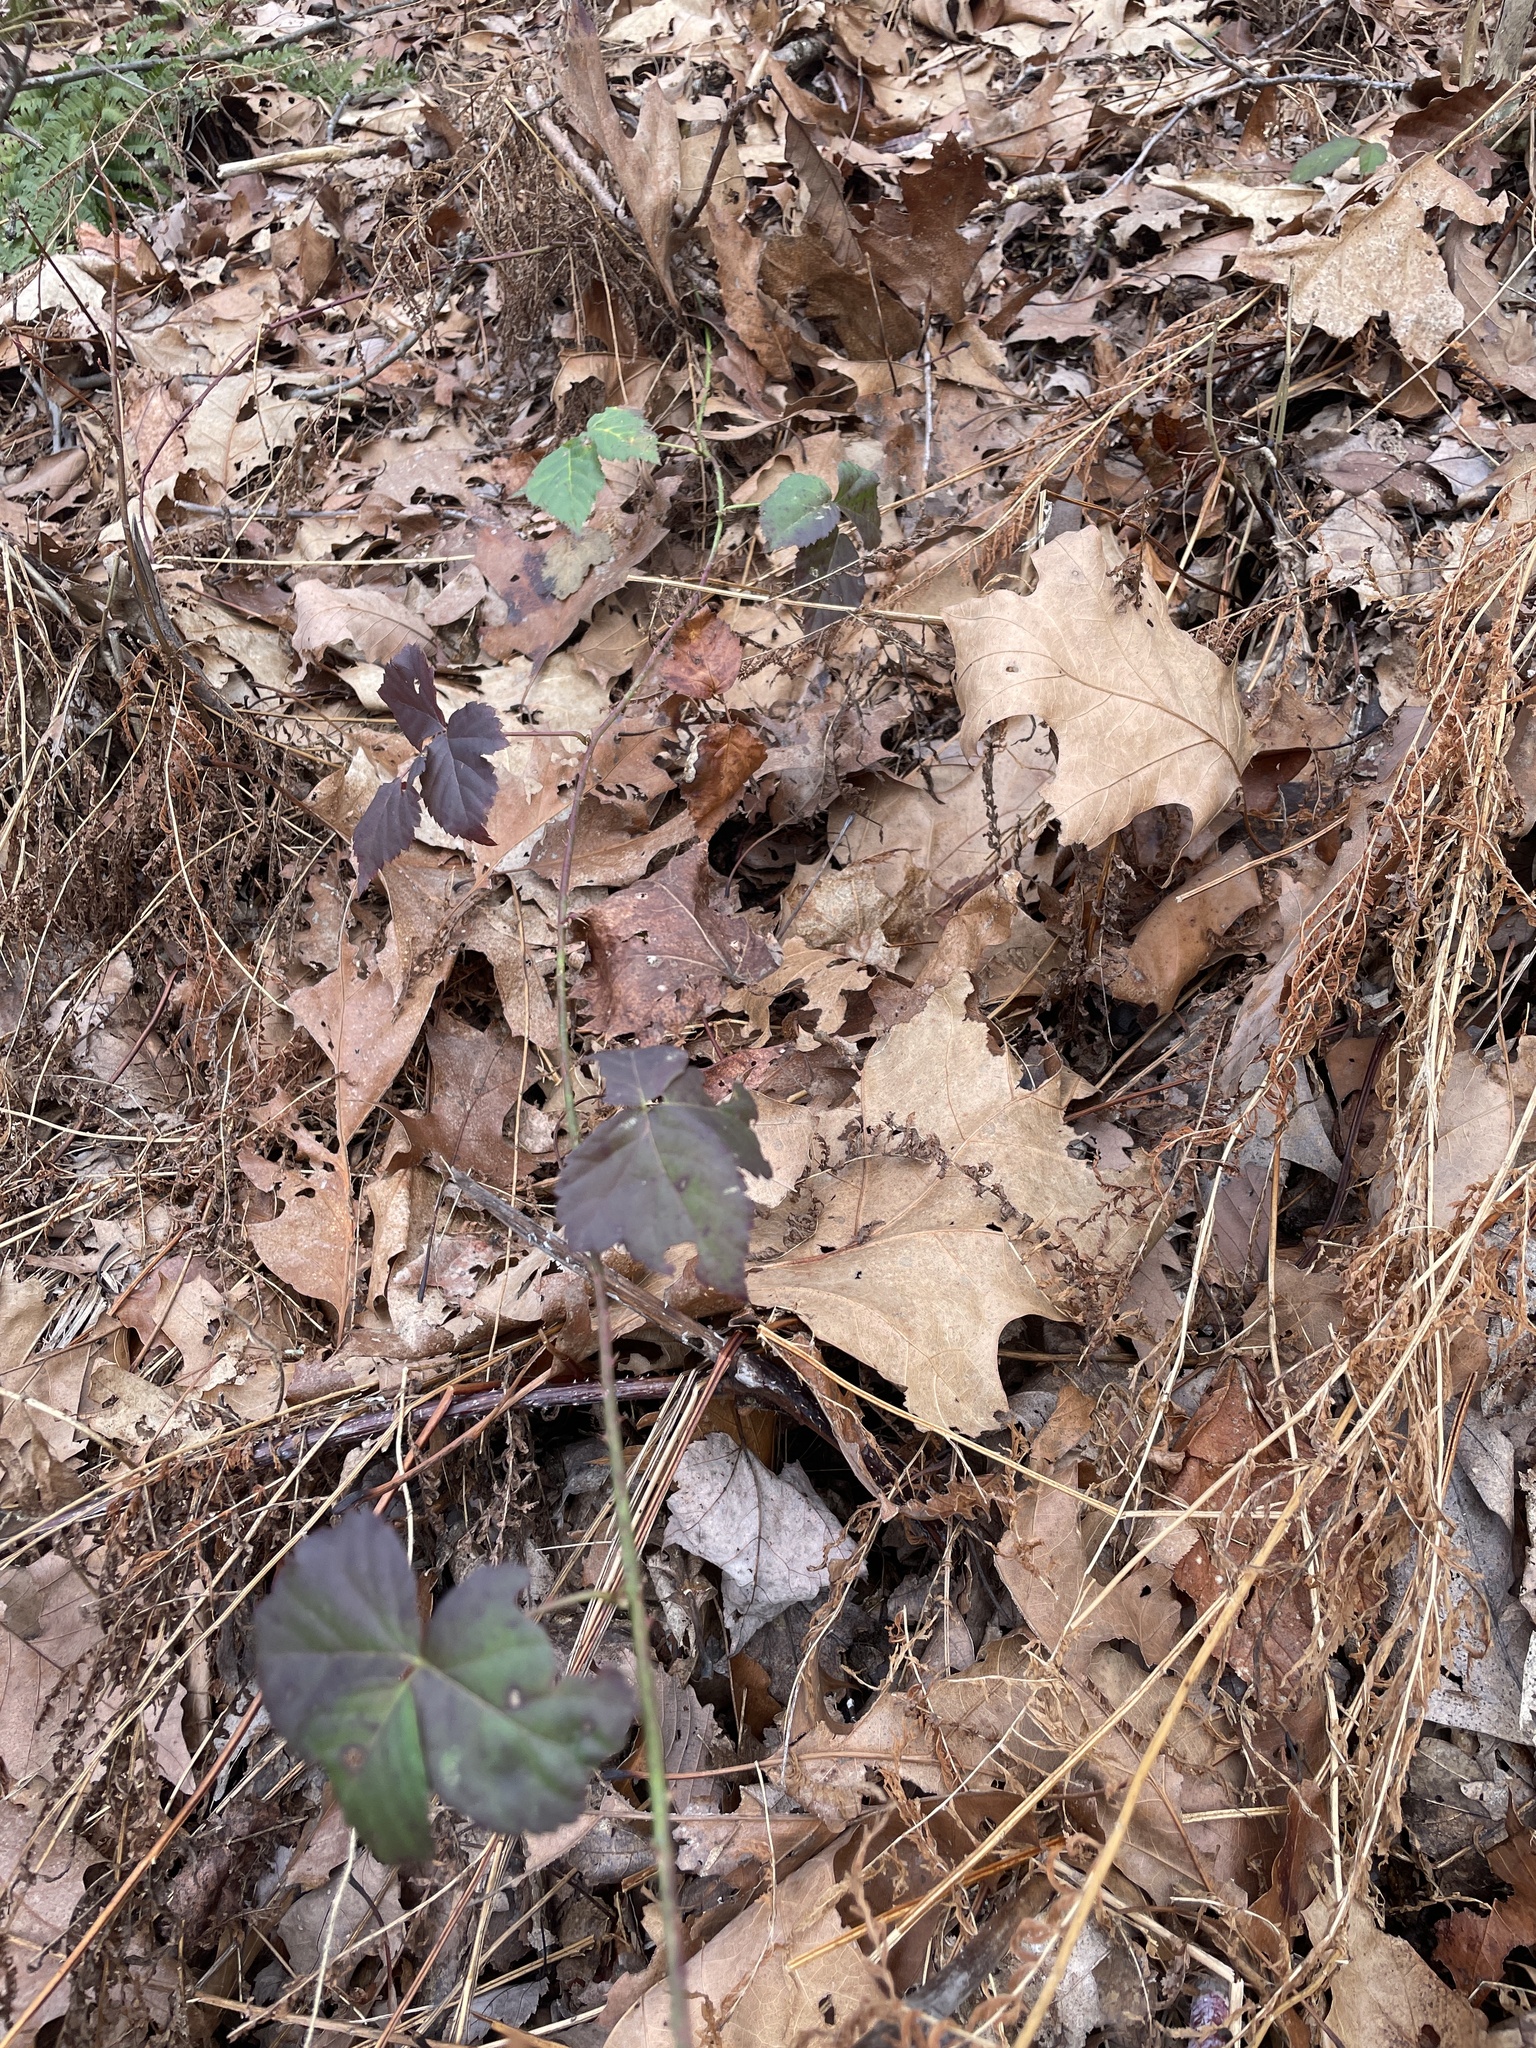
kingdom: Animalia
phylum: Arthropoda
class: Insecta
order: Hymenoptera
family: Cynipidae
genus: Diastrophus
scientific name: Diastrophus
